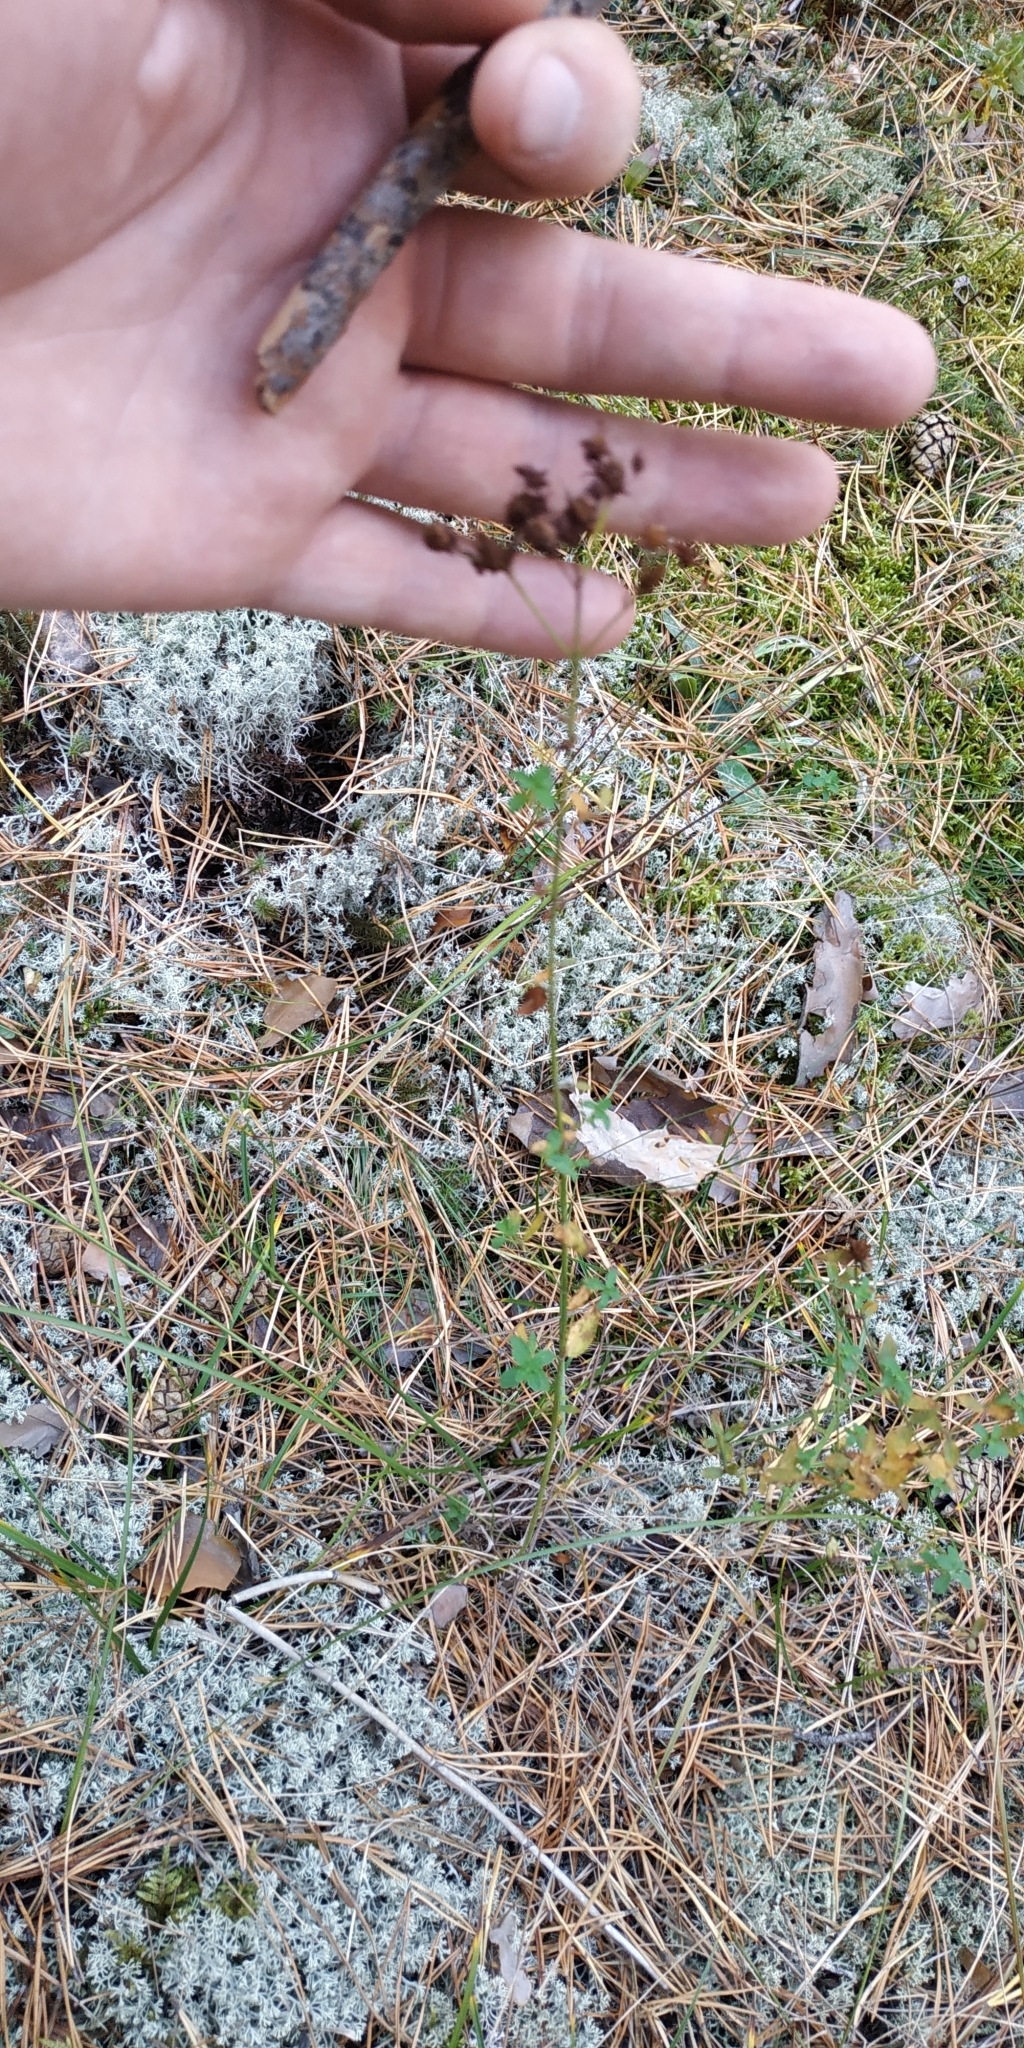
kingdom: Plantae
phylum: Tracheophyta
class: Magnoliopsida
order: Malpighiales
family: Hypericaceae
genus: Hypericum
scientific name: Hypericum perforatum
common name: Common st. johnswort
